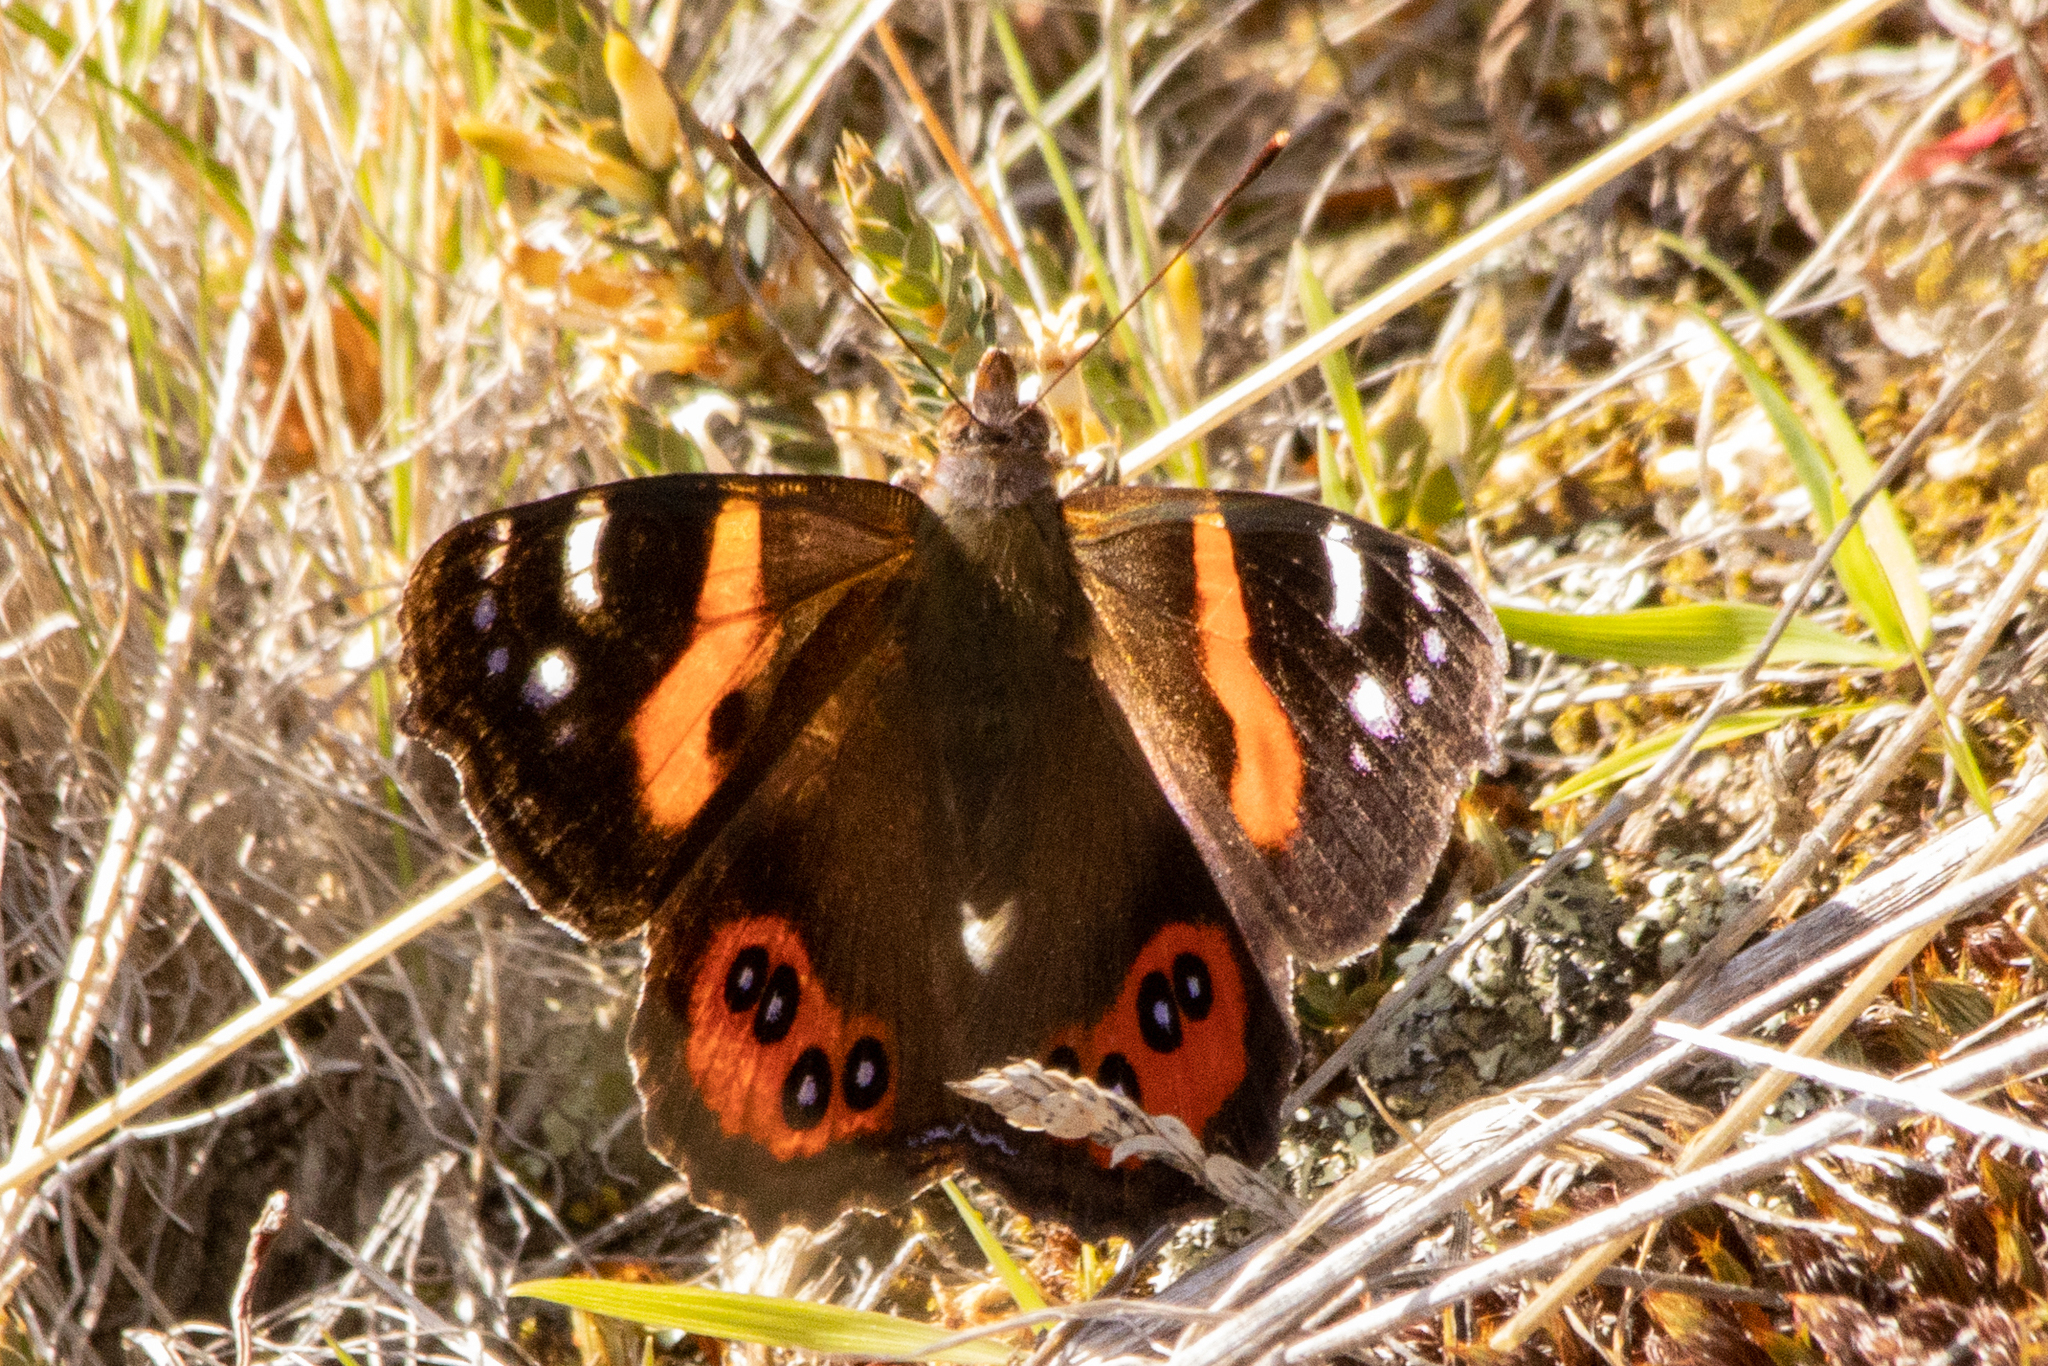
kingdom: Animalia
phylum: Arthropoda
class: Insecta
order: Lepidoptera
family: Nymphalidae
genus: Vanessa
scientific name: Vanessa gonerilla
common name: New zealand red admiral
